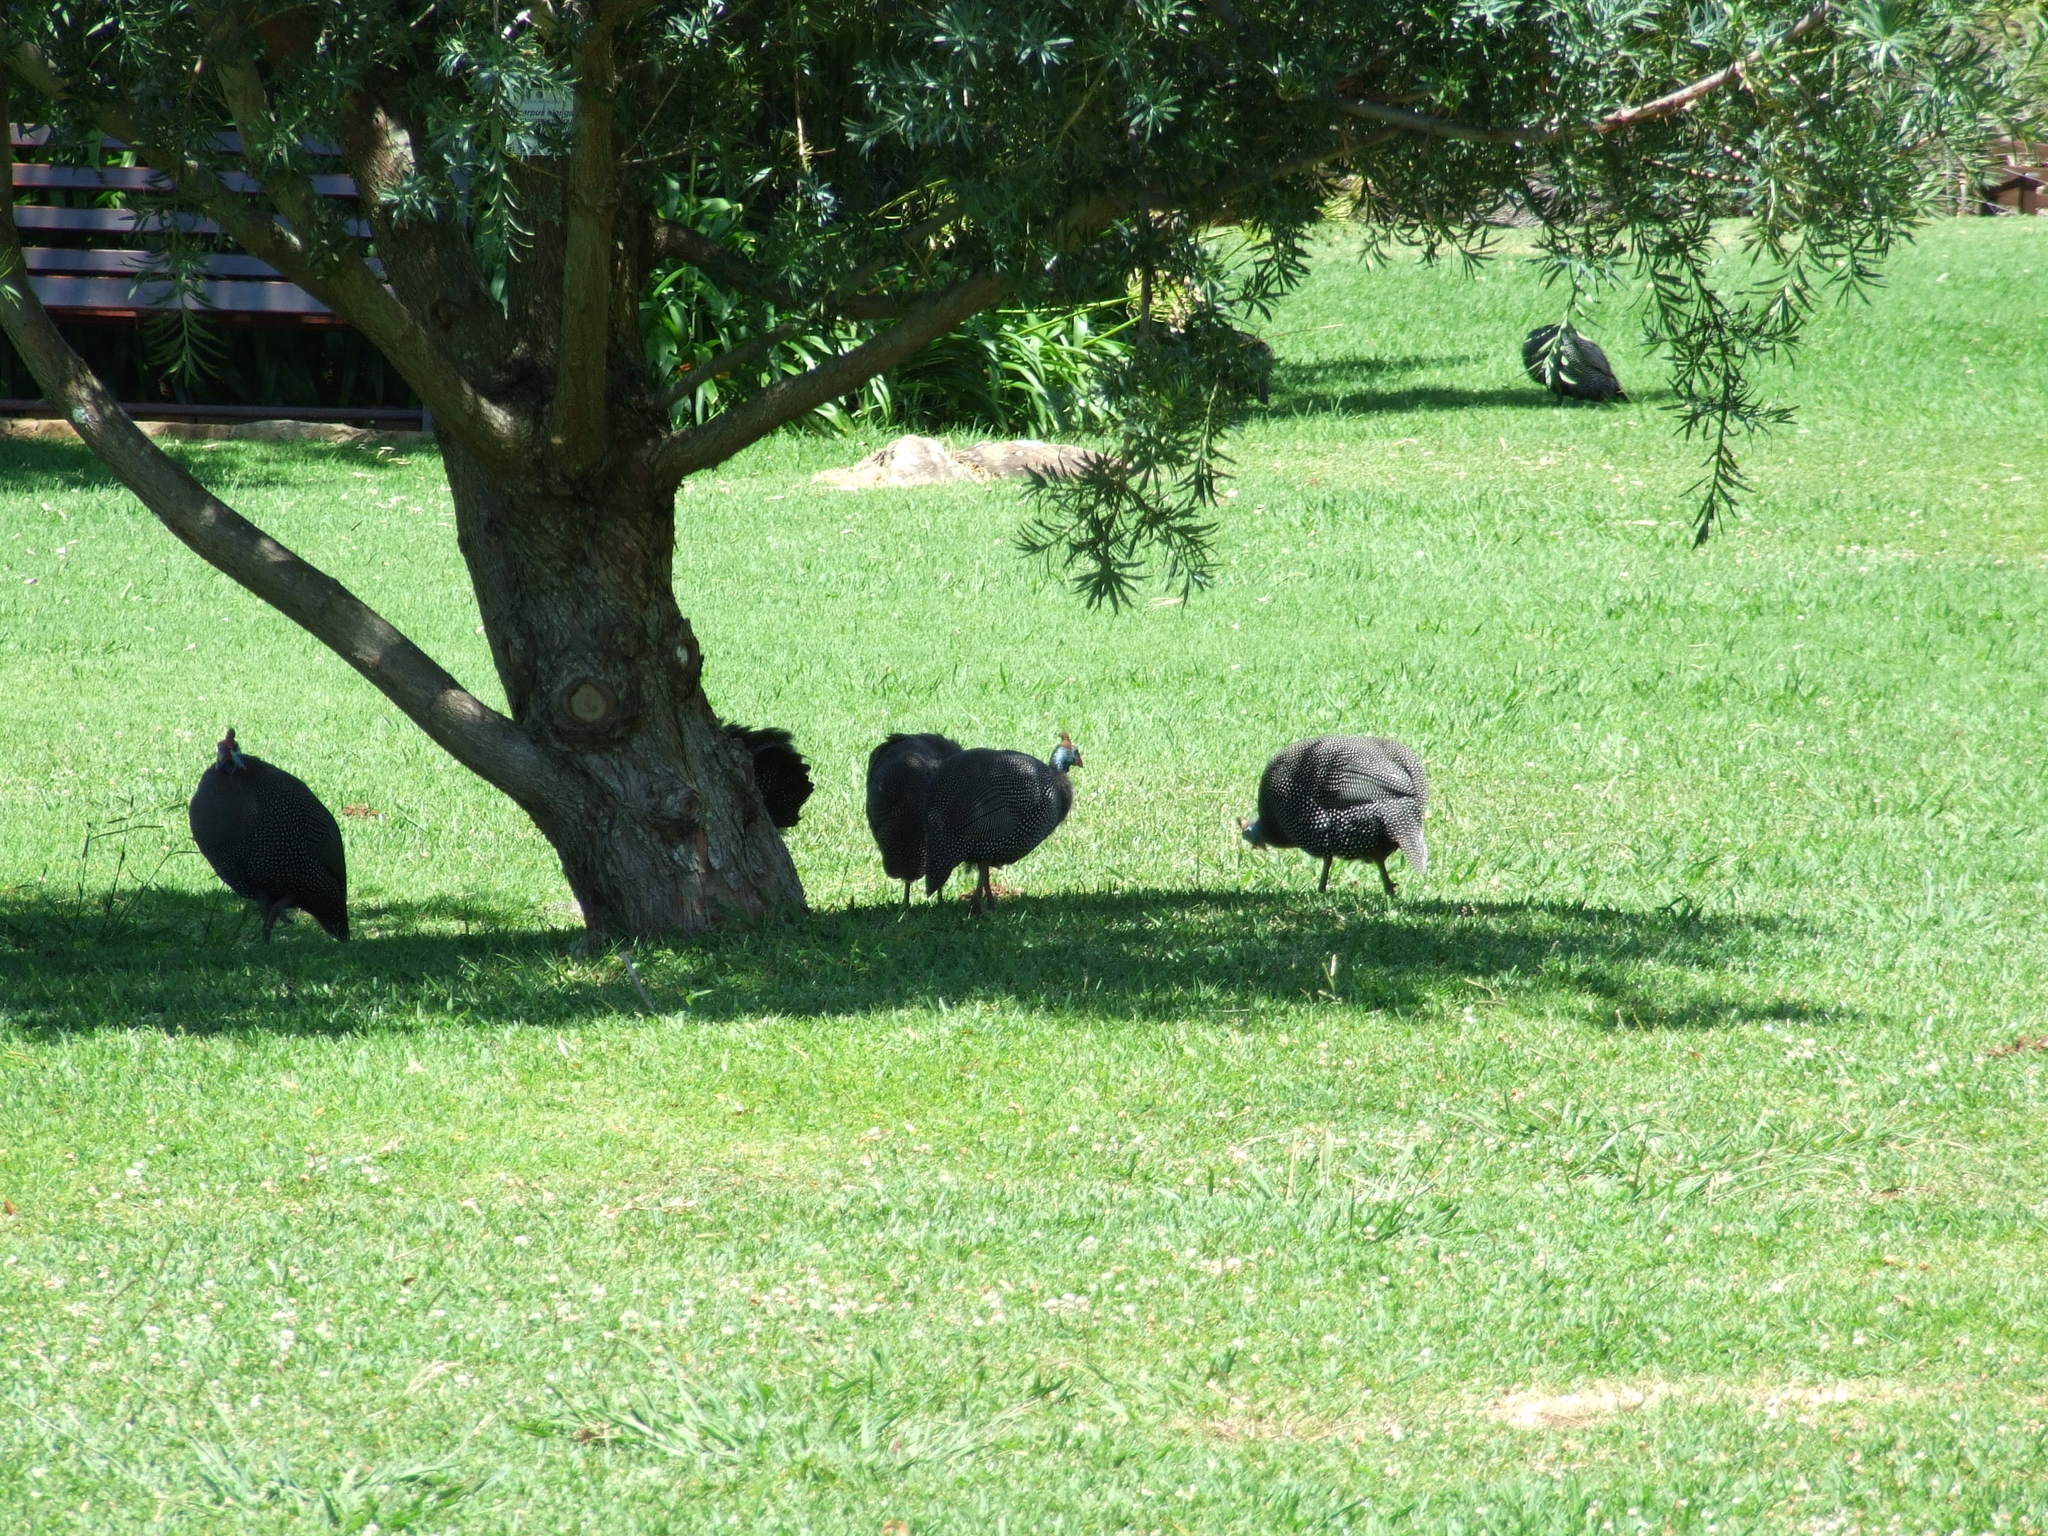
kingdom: Animalia
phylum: Chordata
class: Aves
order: Galliformes
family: Numididae
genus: Numida
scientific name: Numida meleagris
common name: Helmeted guineafowl
